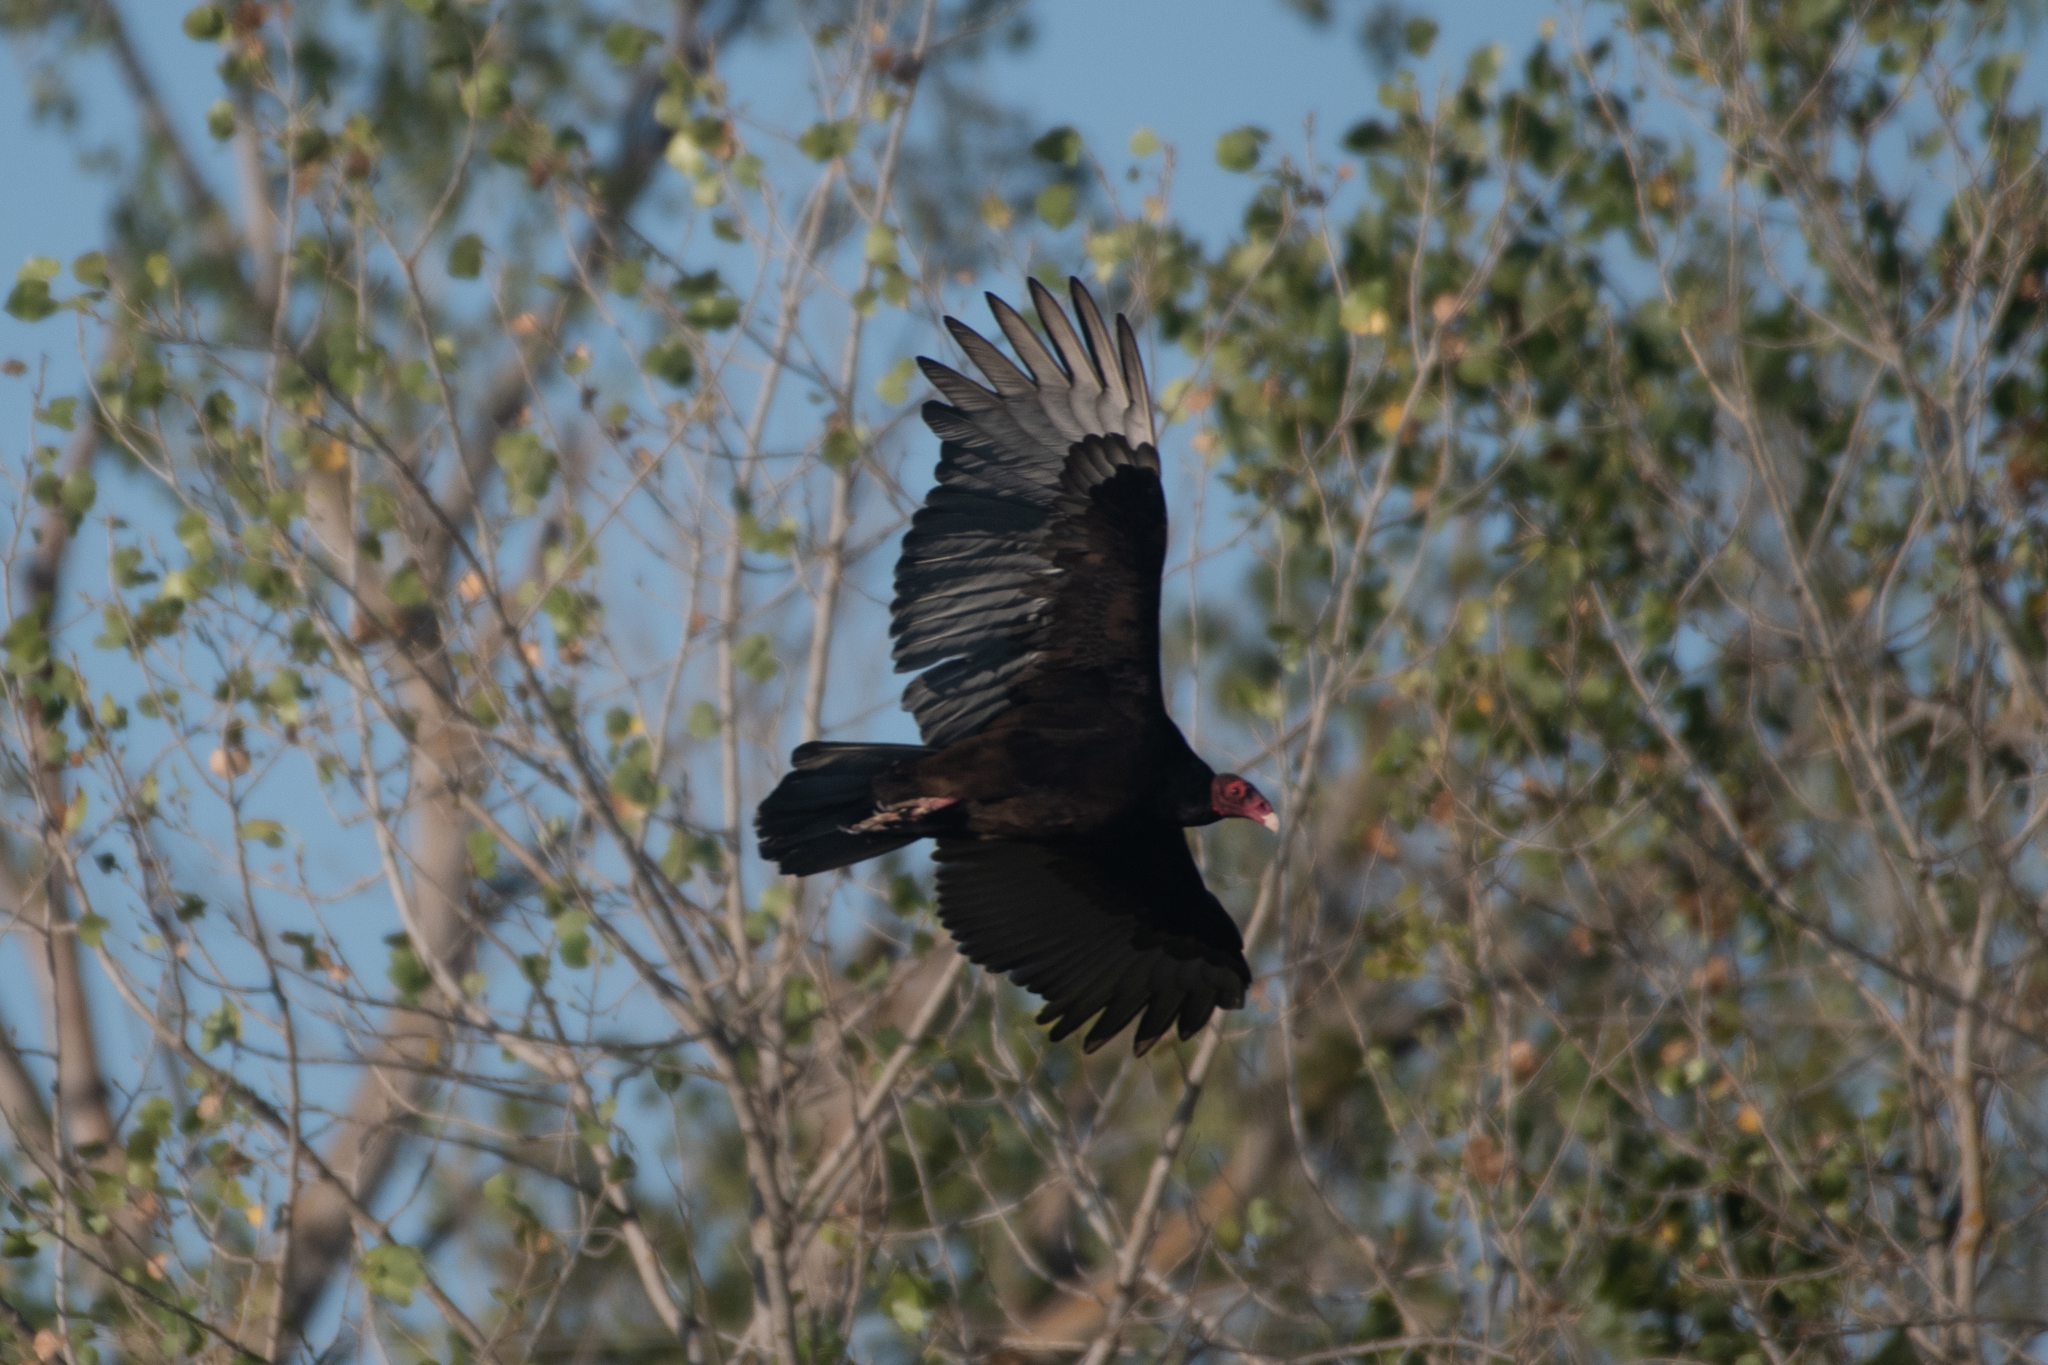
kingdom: Animalia
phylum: Chordata
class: Aves
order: Accipitriformes
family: Cathartidae
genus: Cathartes
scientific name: Cathartes aura
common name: Turkey vulture
